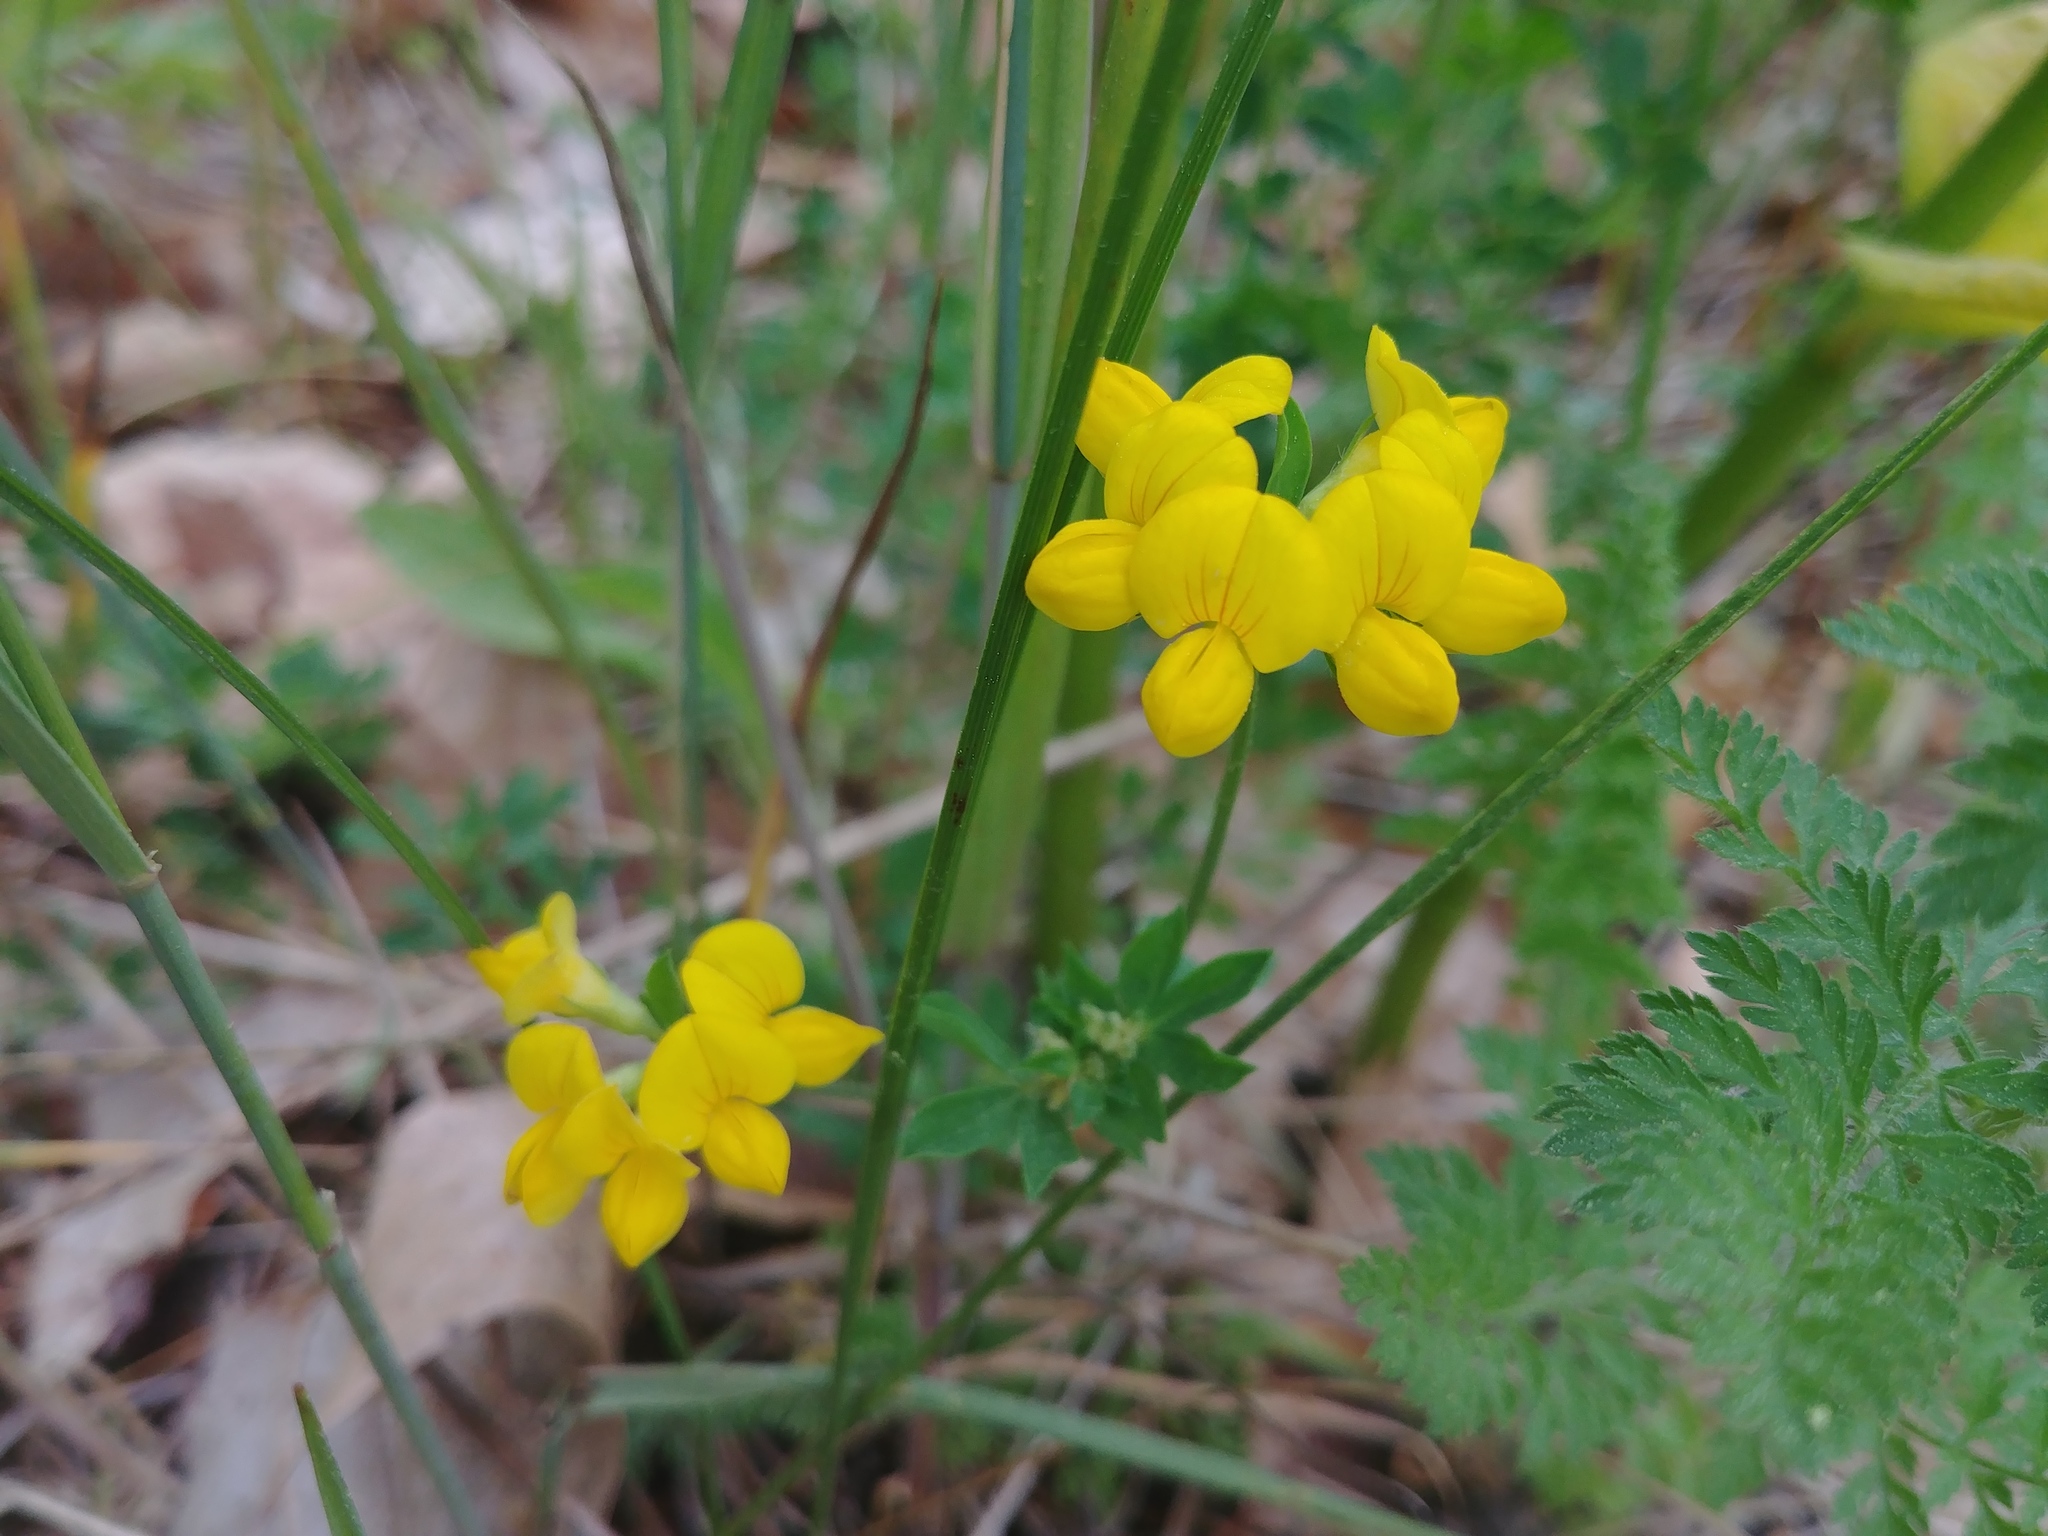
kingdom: Plantae
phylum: Tracheophyta
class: Magnoliopsida
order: Fabales
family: Fabaceae
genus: Lotus
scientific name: Lotus corniculatus
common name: Common bird's-foot-trefoil
